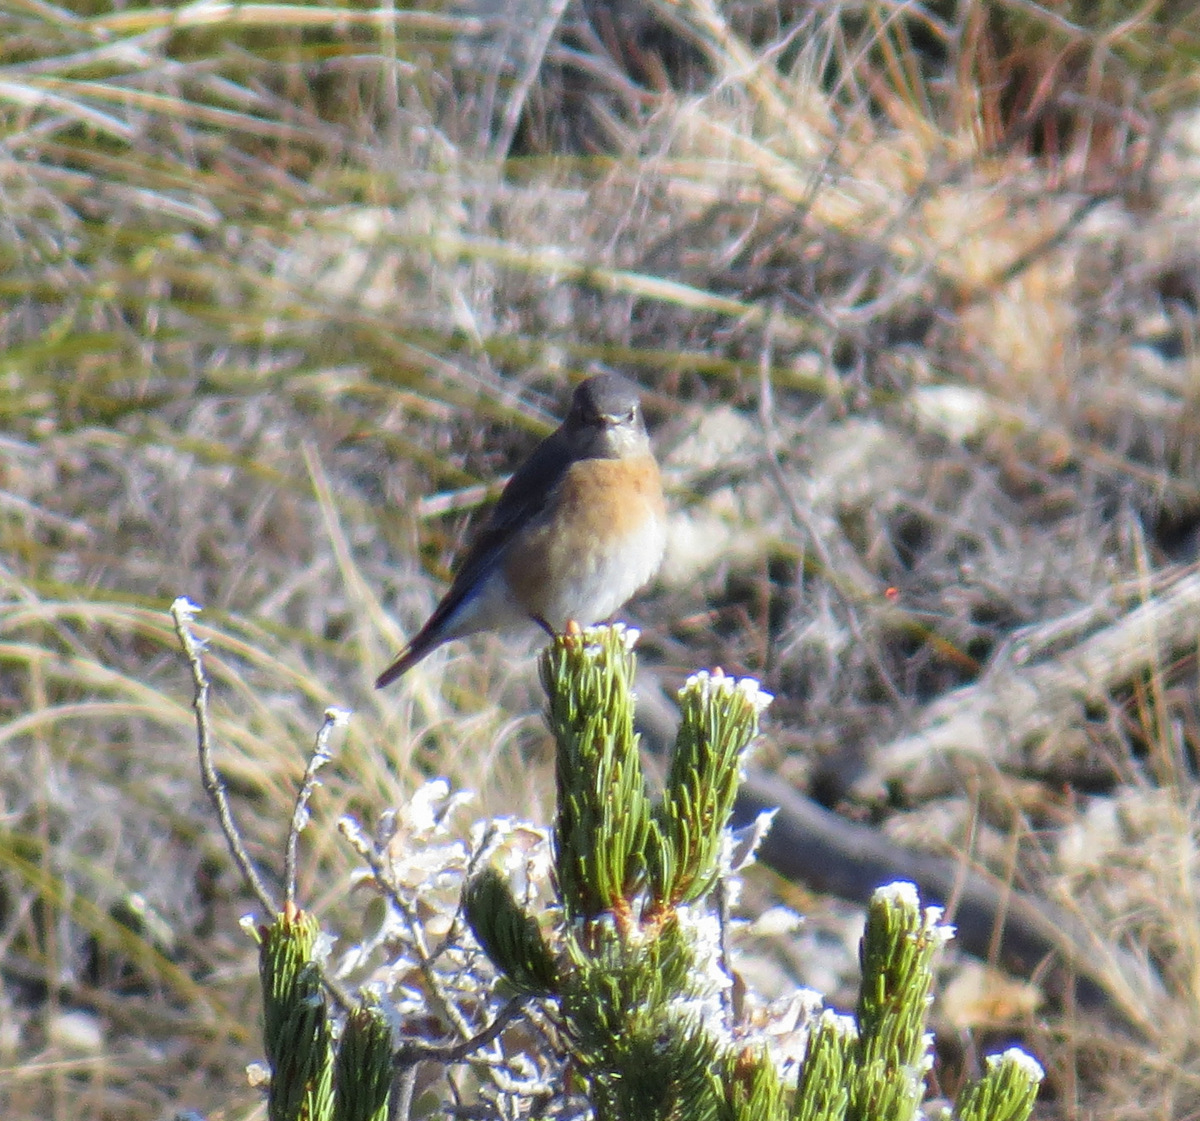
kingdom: Animalia
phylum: Chordata
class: Aves
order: Passeriformes
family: Turdidae
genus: Sialia
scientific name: Sialia mexicana
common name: Western bluebird
